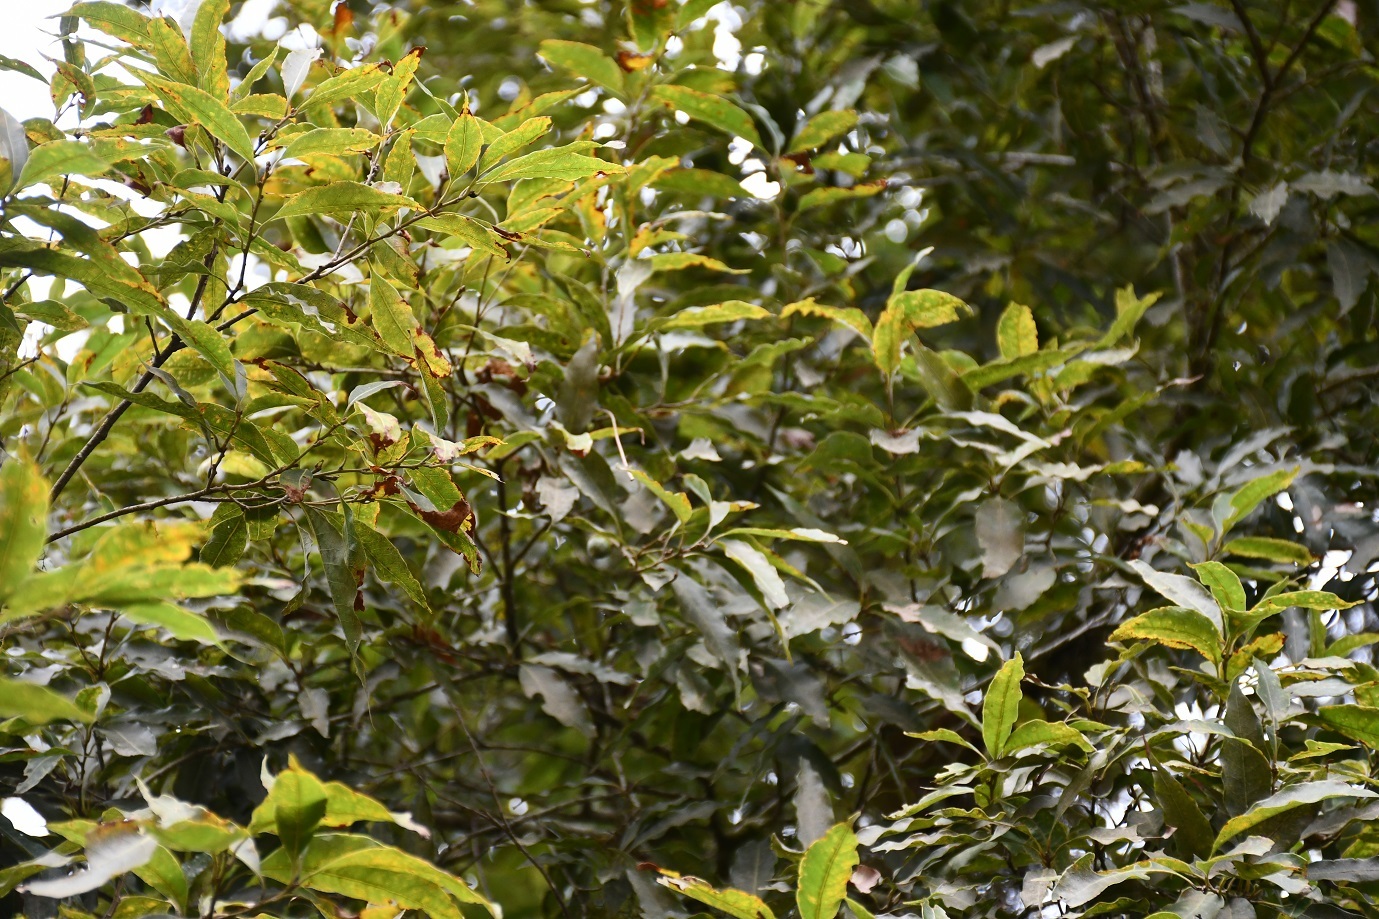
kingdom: Plantae
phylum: Tracheophyta
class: Magnoliopsida
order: Fagales
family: Fagaceae
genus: Quercus
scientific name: Quercus laurina
